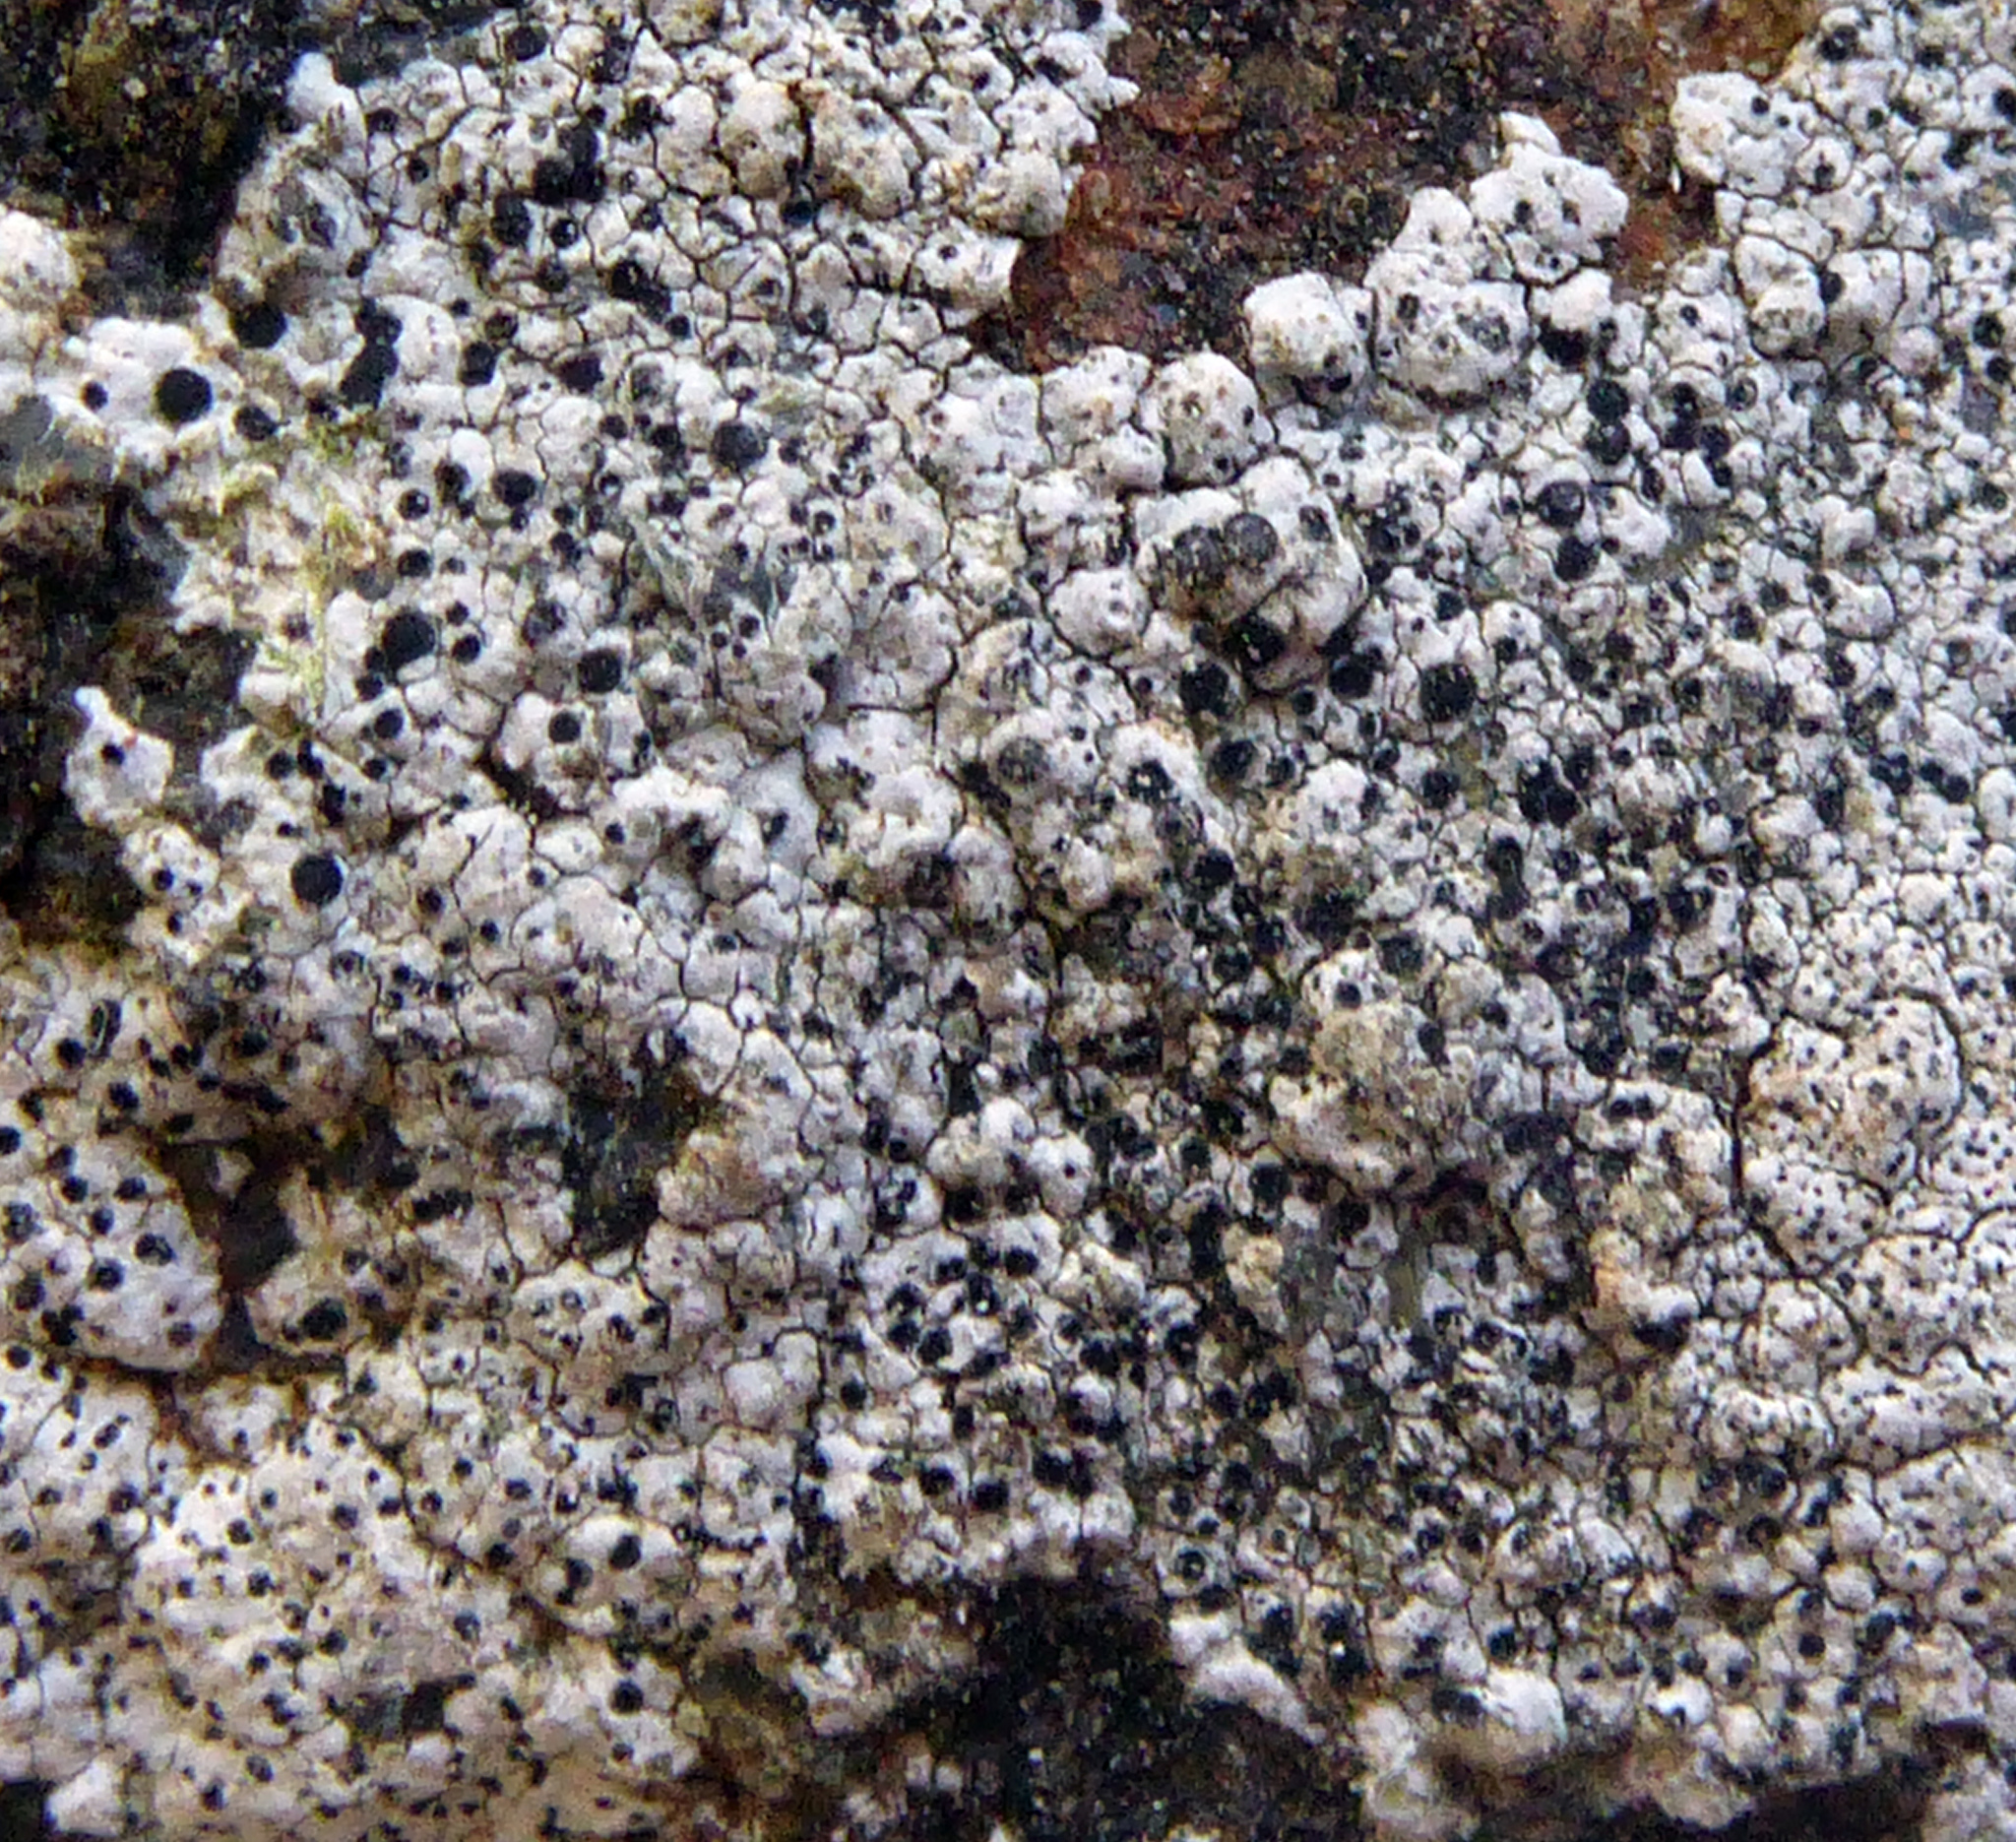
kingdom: Fungi
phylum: Ascomycota
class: Lecanoromycetes
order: Caliciales
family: Physciaceae
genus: Rinodinella
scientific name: Rinodinella fertilis
